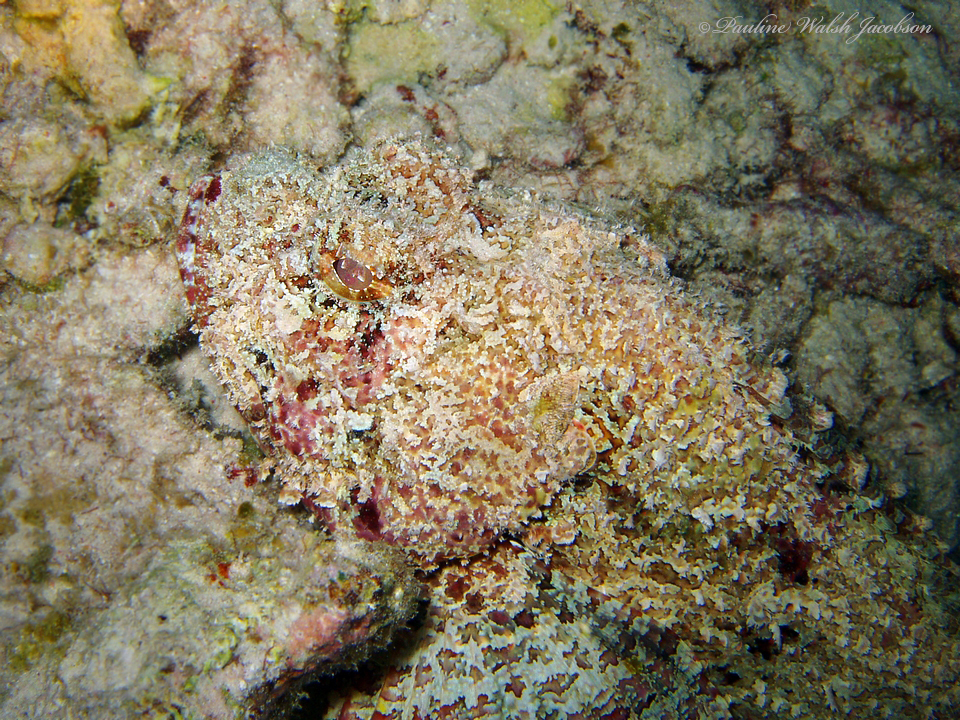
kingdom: Animalia
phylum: Chordata
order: Scorpaeniformes
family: Scorpaenidae
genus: Scorpaena
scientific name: Scorpaena plumieri
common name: Spotted scorpionfish
